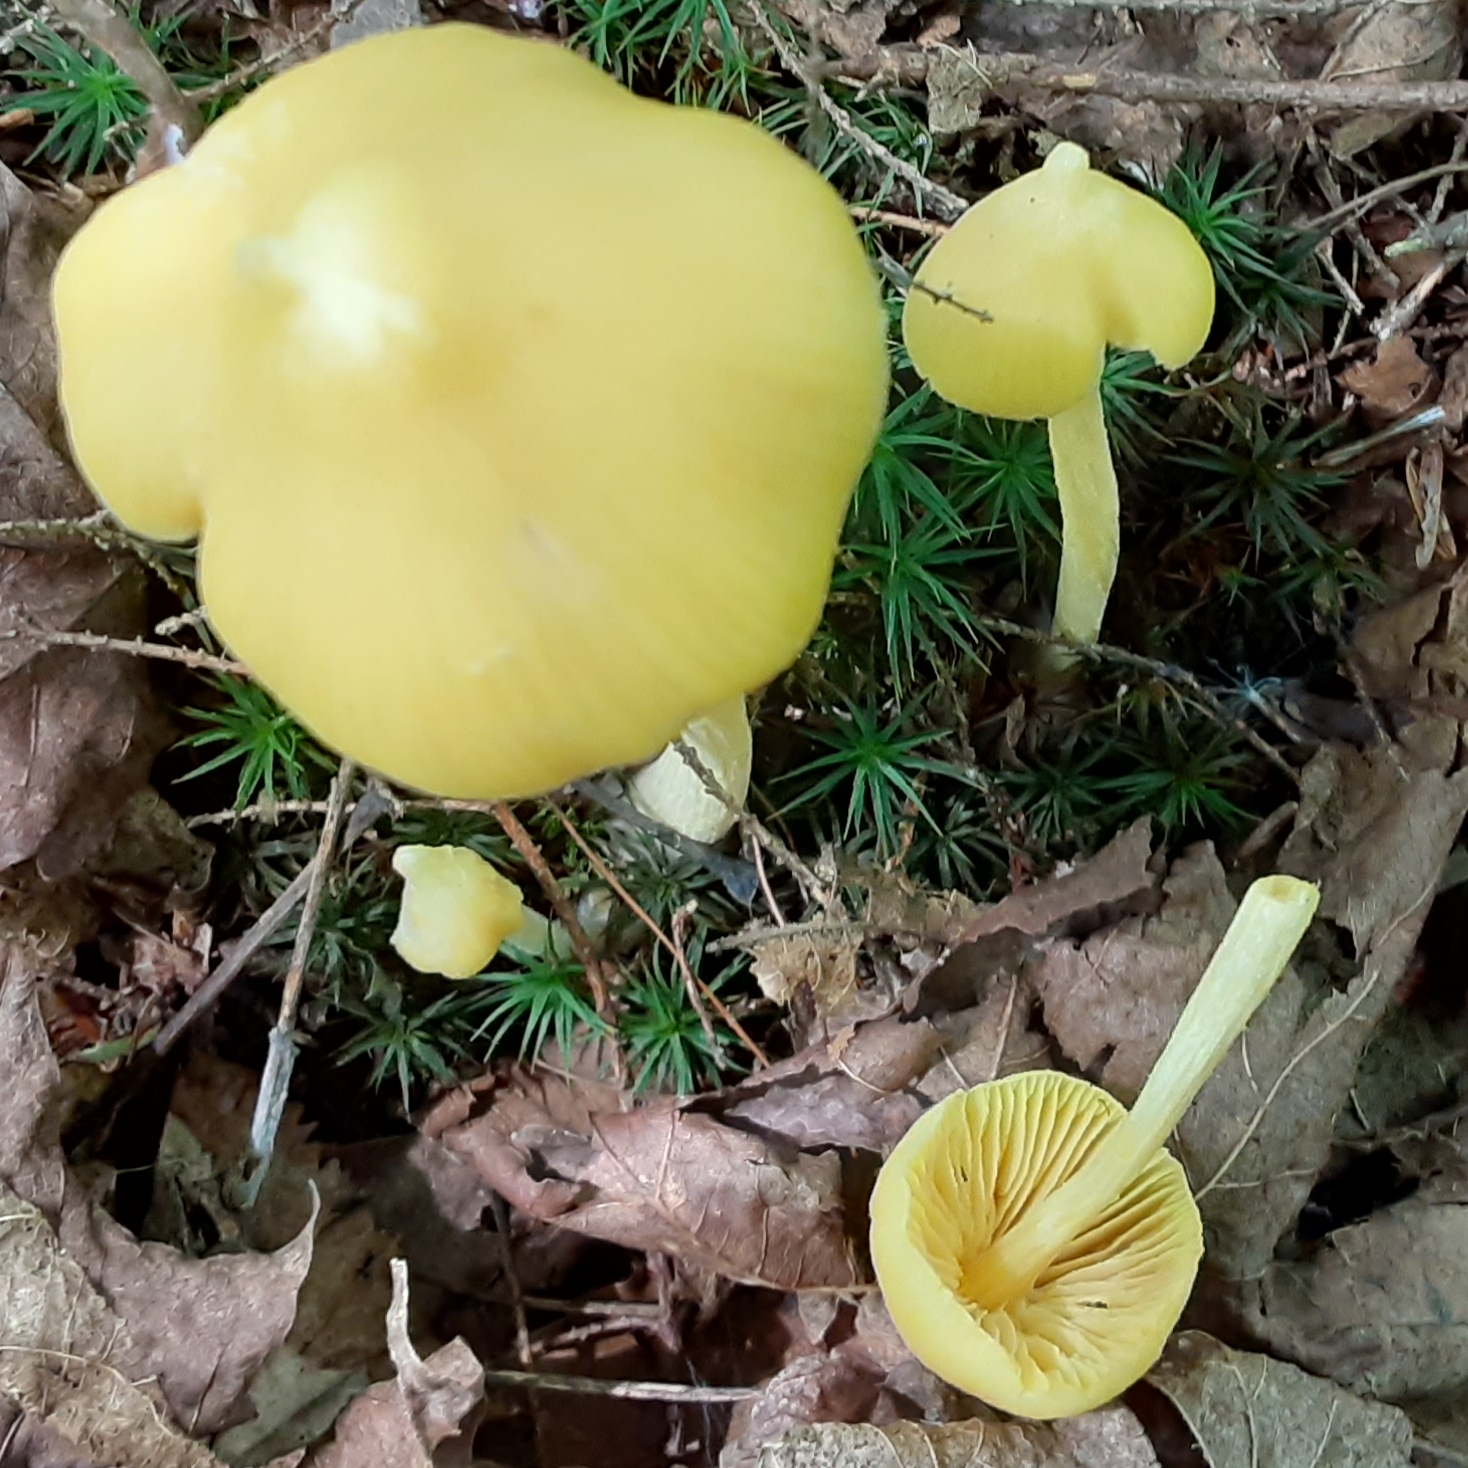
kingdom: Fungi
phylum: Basidiomycota
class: Agaricomycetes
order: Agaricales
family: Entolomataceae
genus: Entoloma
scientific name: Entoloma murrayi
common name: Yellow unicorn entoloma
